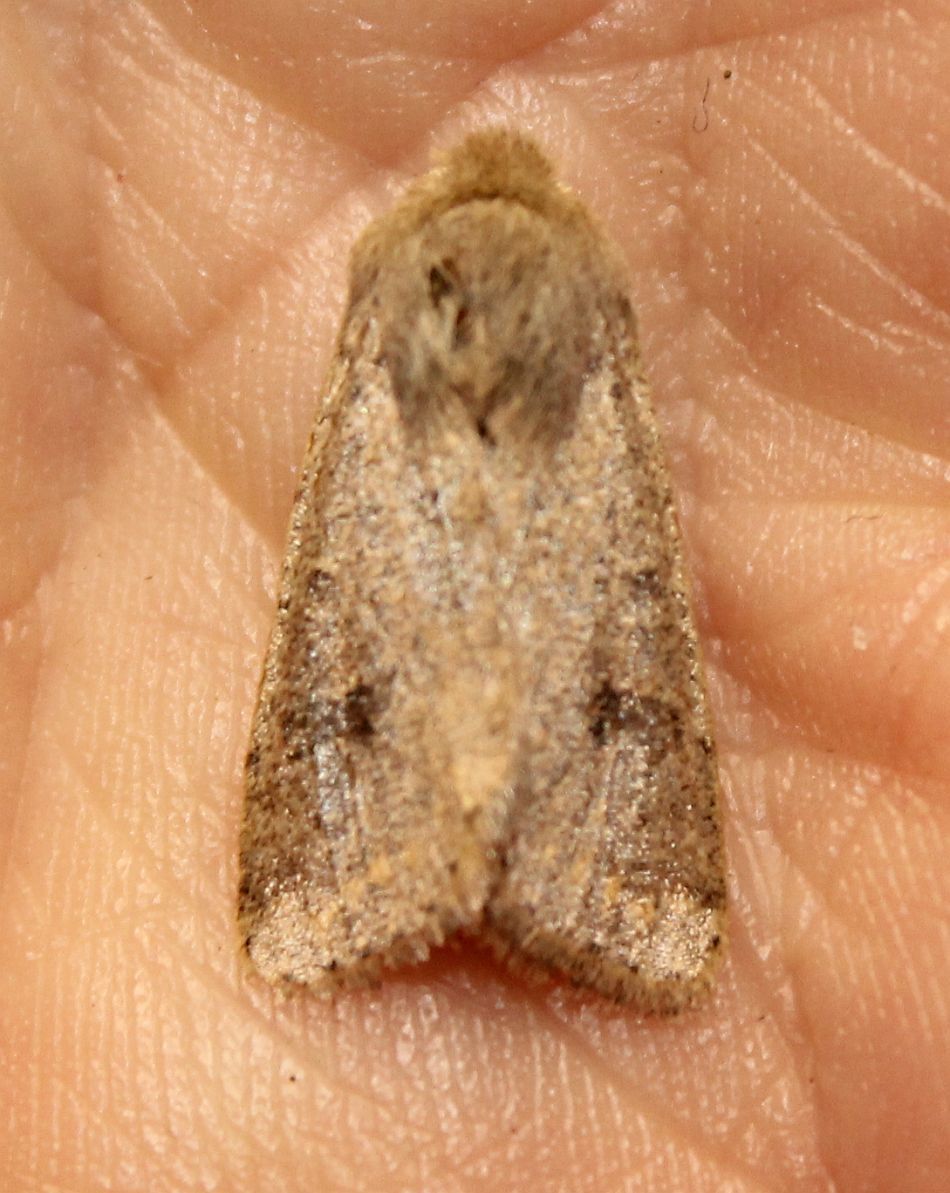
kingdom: Animalia
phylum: Arthropoda
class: Insecta
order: Lepidoptera
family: Noctuidae
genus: Orthosia
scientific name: Orthosia cruda
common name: Small quaker
